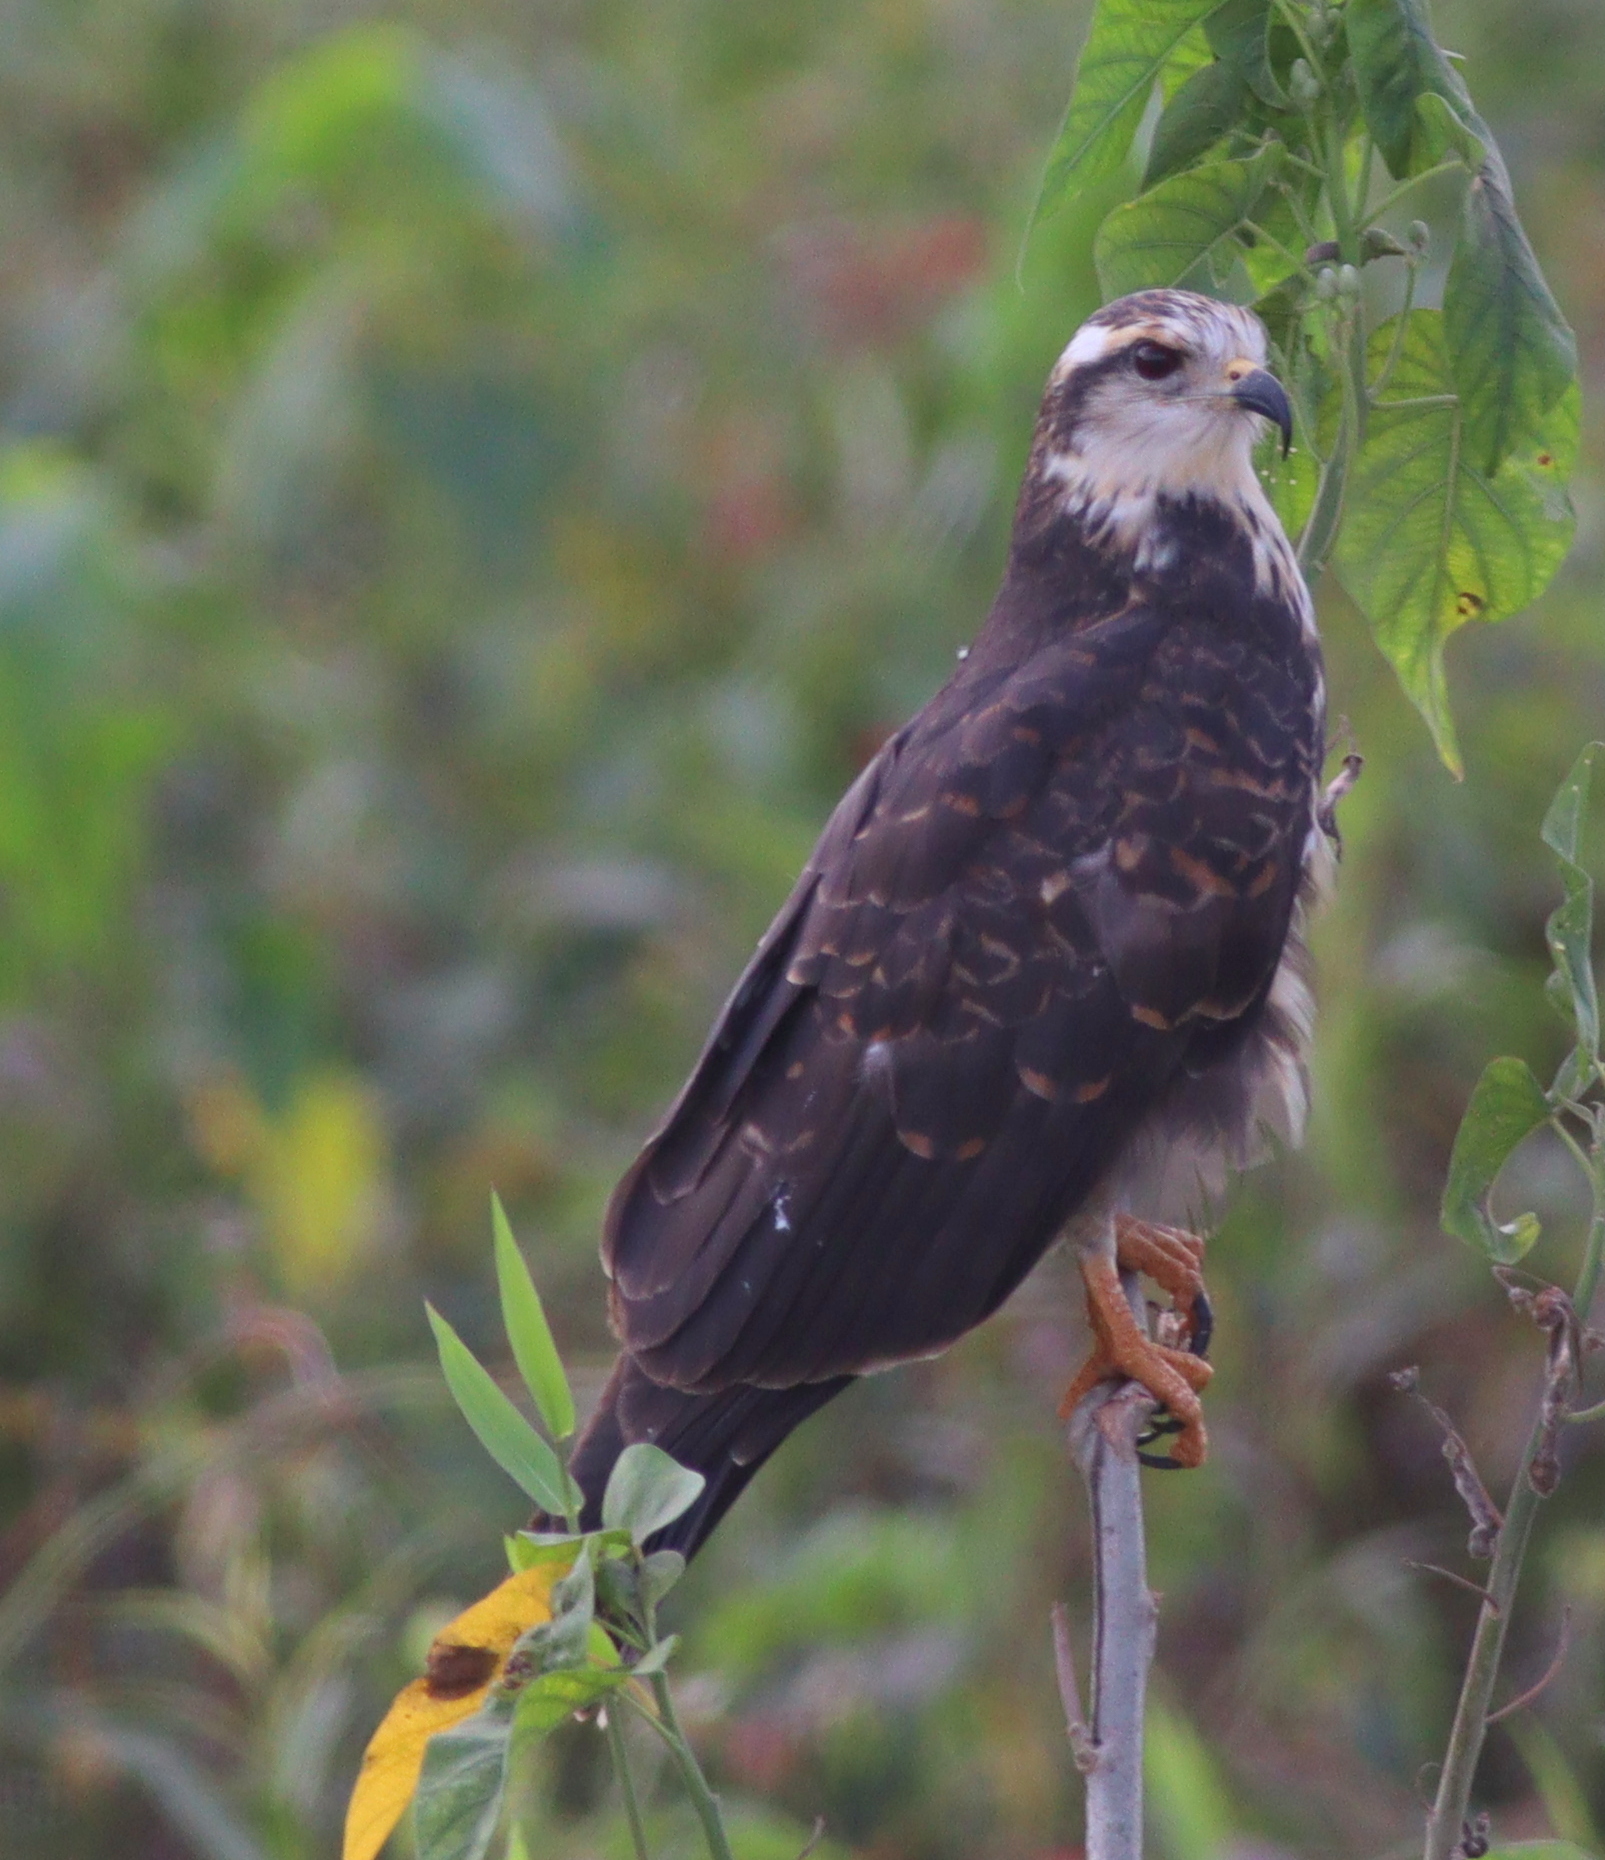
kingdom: Animalia
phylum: Chordata
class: Aves
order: Accipitriformes
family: Accipitridae
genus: Rostrhamus
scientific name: Rostrhamus sociabilis
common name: Snail kite
